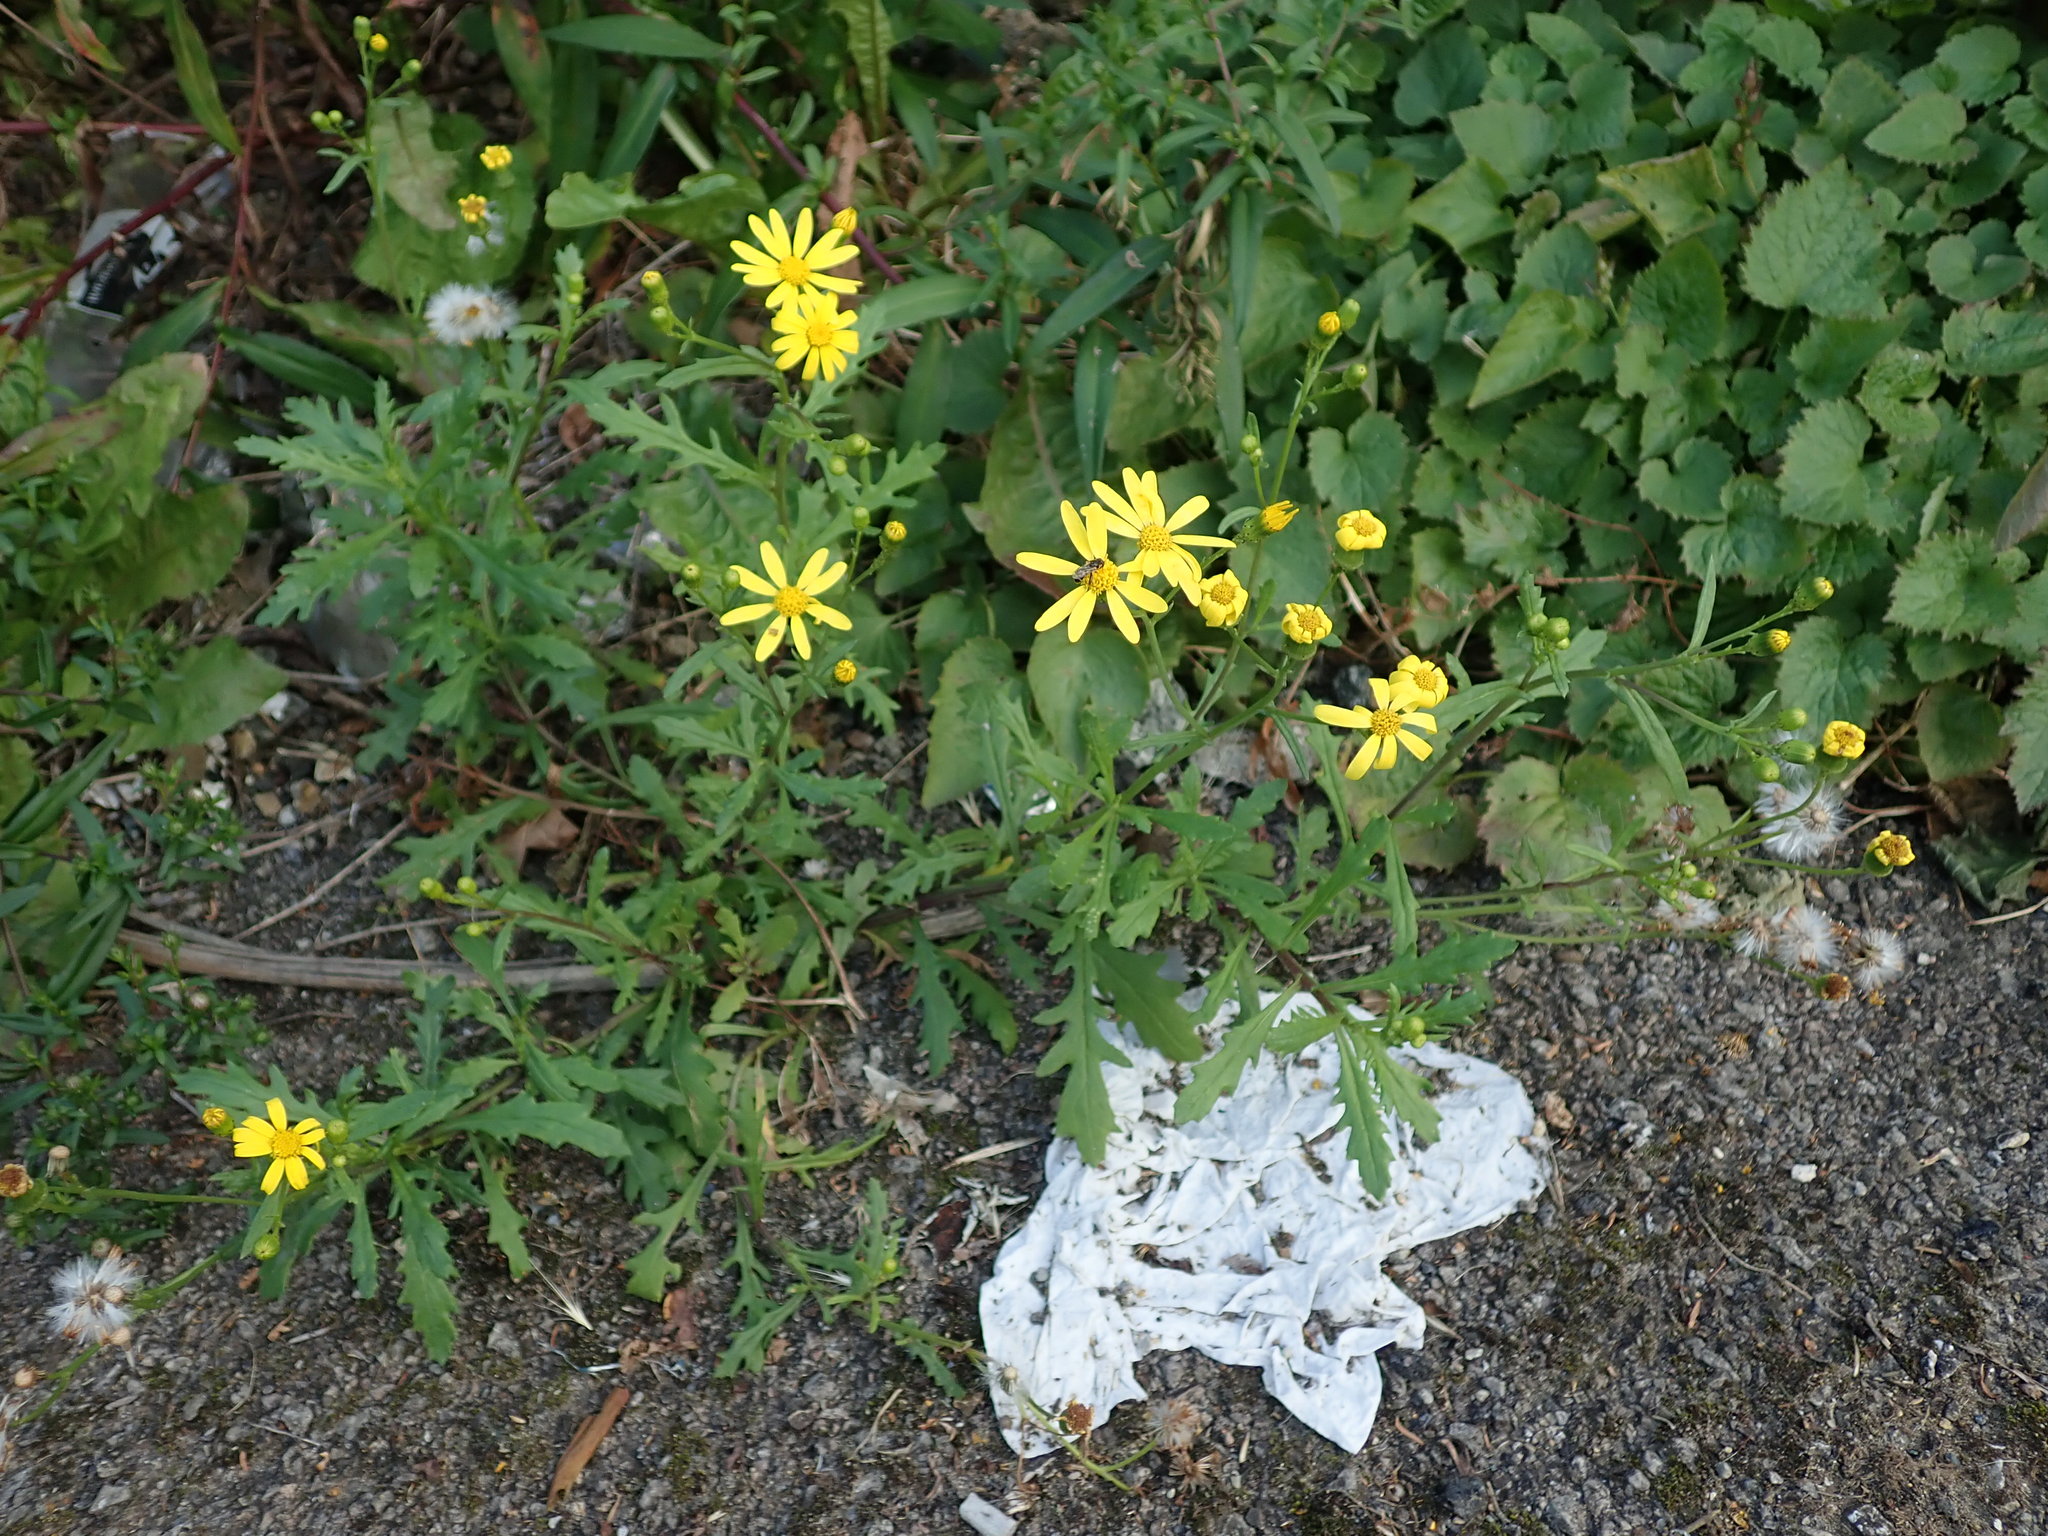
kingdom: Plantae
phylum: Tracheophyta
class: Magnoliopsida
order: Asterales
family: Asteraceae
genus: Senecio
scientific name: Senecio squalidus
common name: Oxford ragwort
